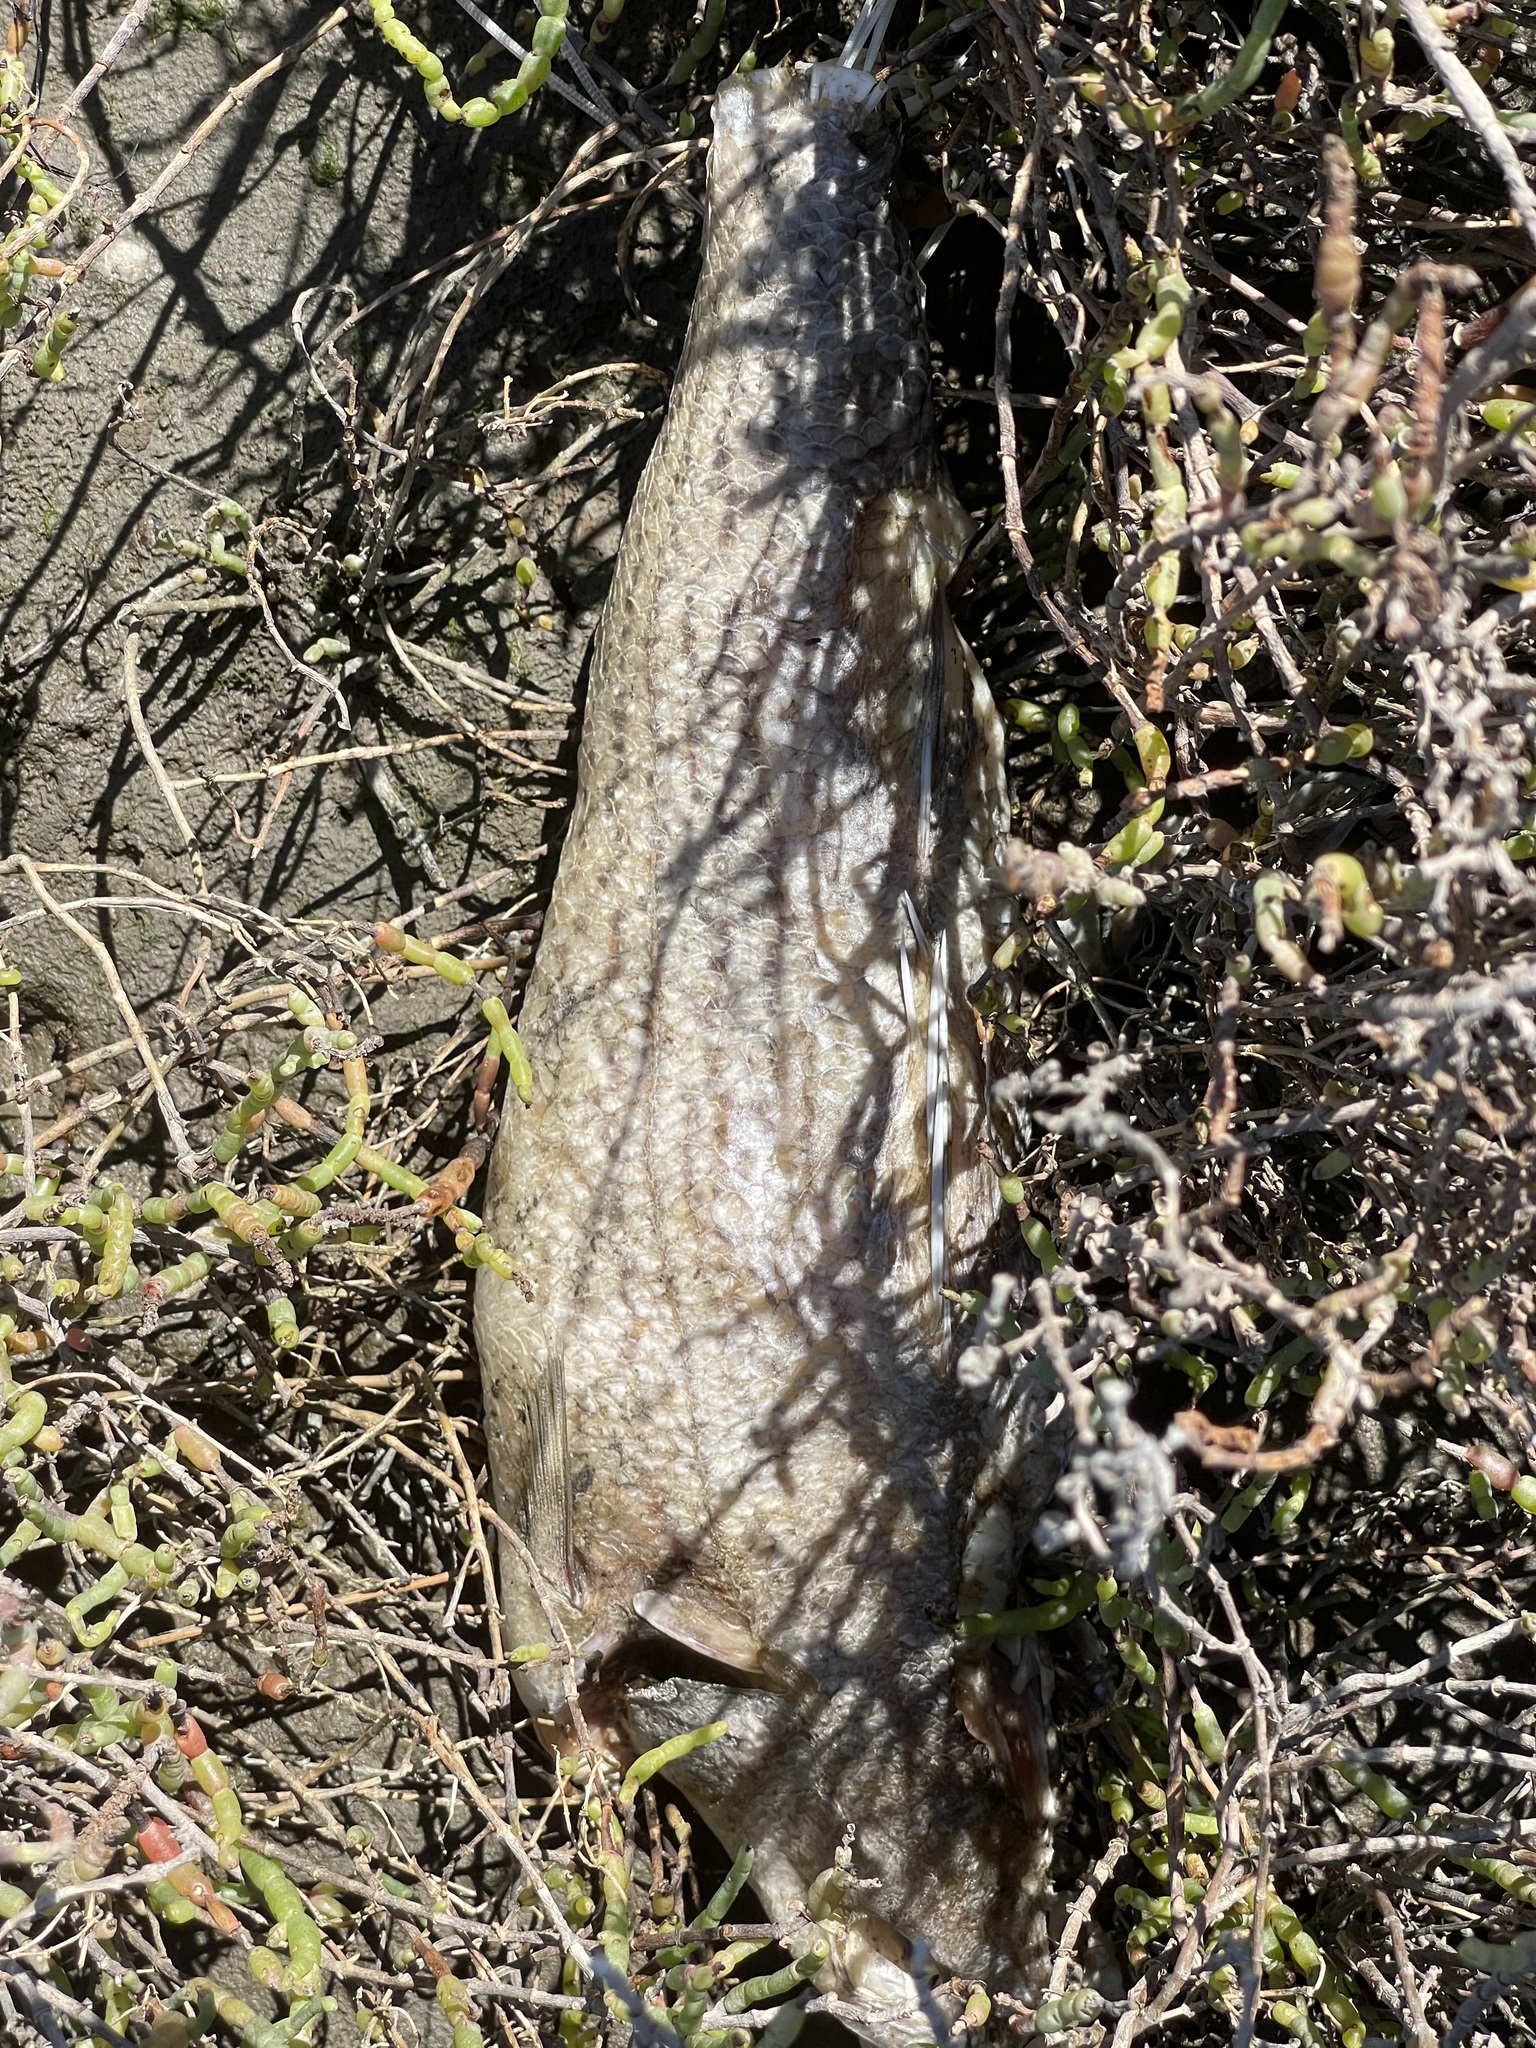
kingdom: Animalia
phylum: Chordata
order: Perciformes
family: Moronidae
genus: Morone
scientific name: Morone saxatilis
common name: Striped bass
